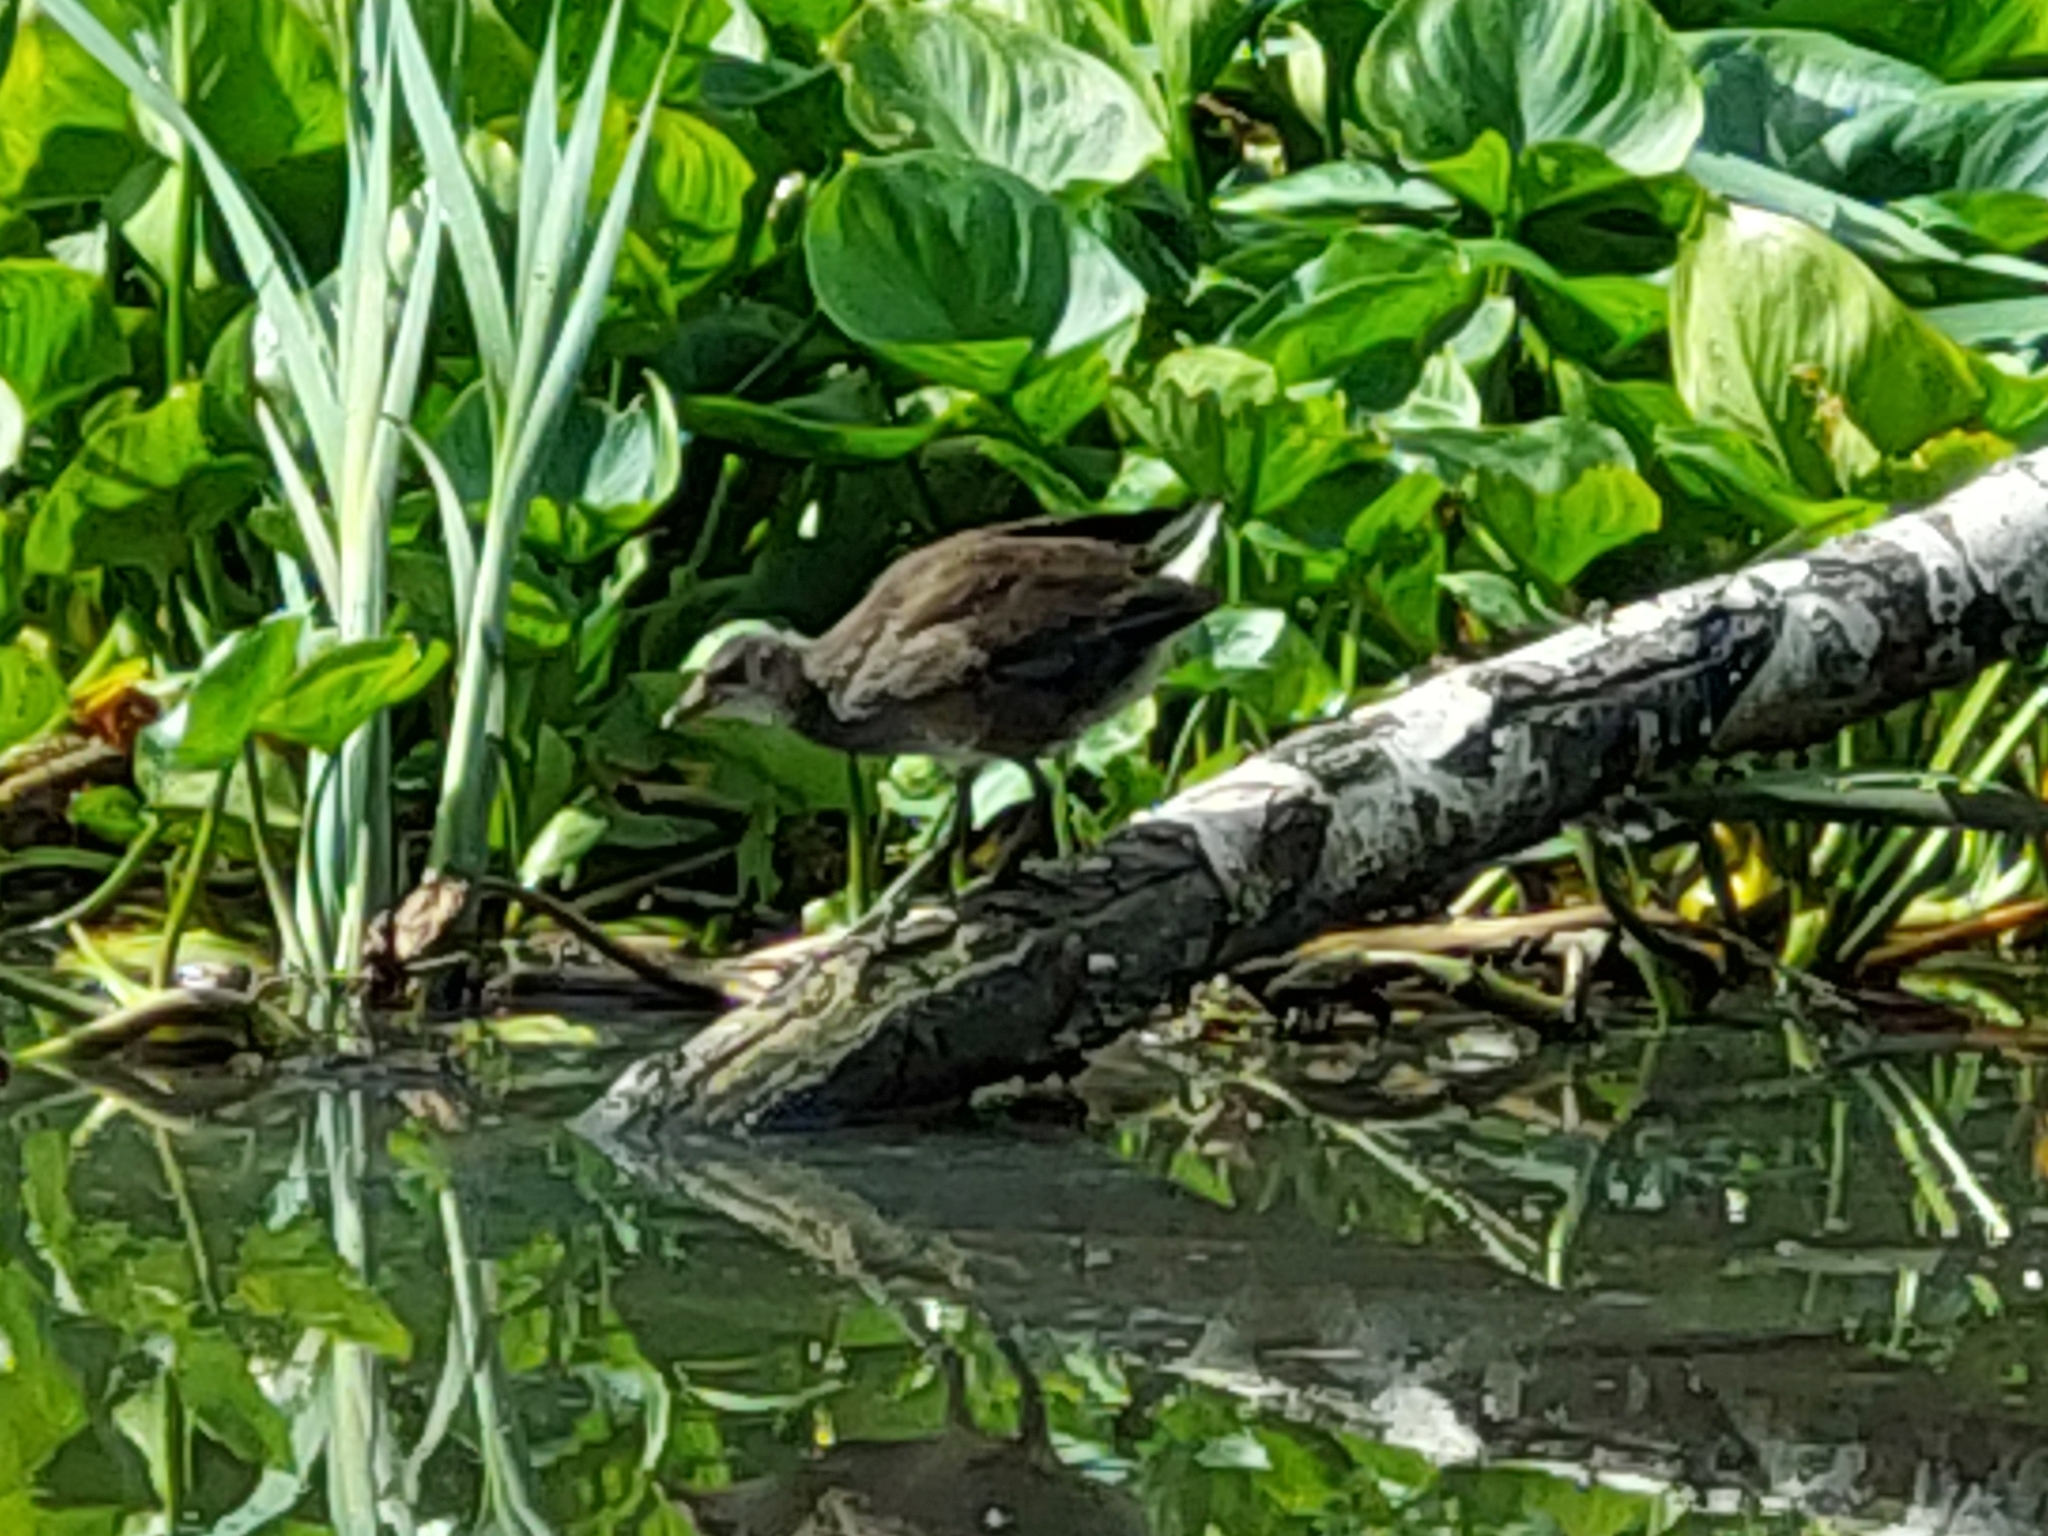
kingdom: Animalia
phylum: Chordata
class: Aves
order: Gruiformes
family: Rallidae
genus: Gallinula
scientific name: Gallinula chloropus
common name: Common moorhen
